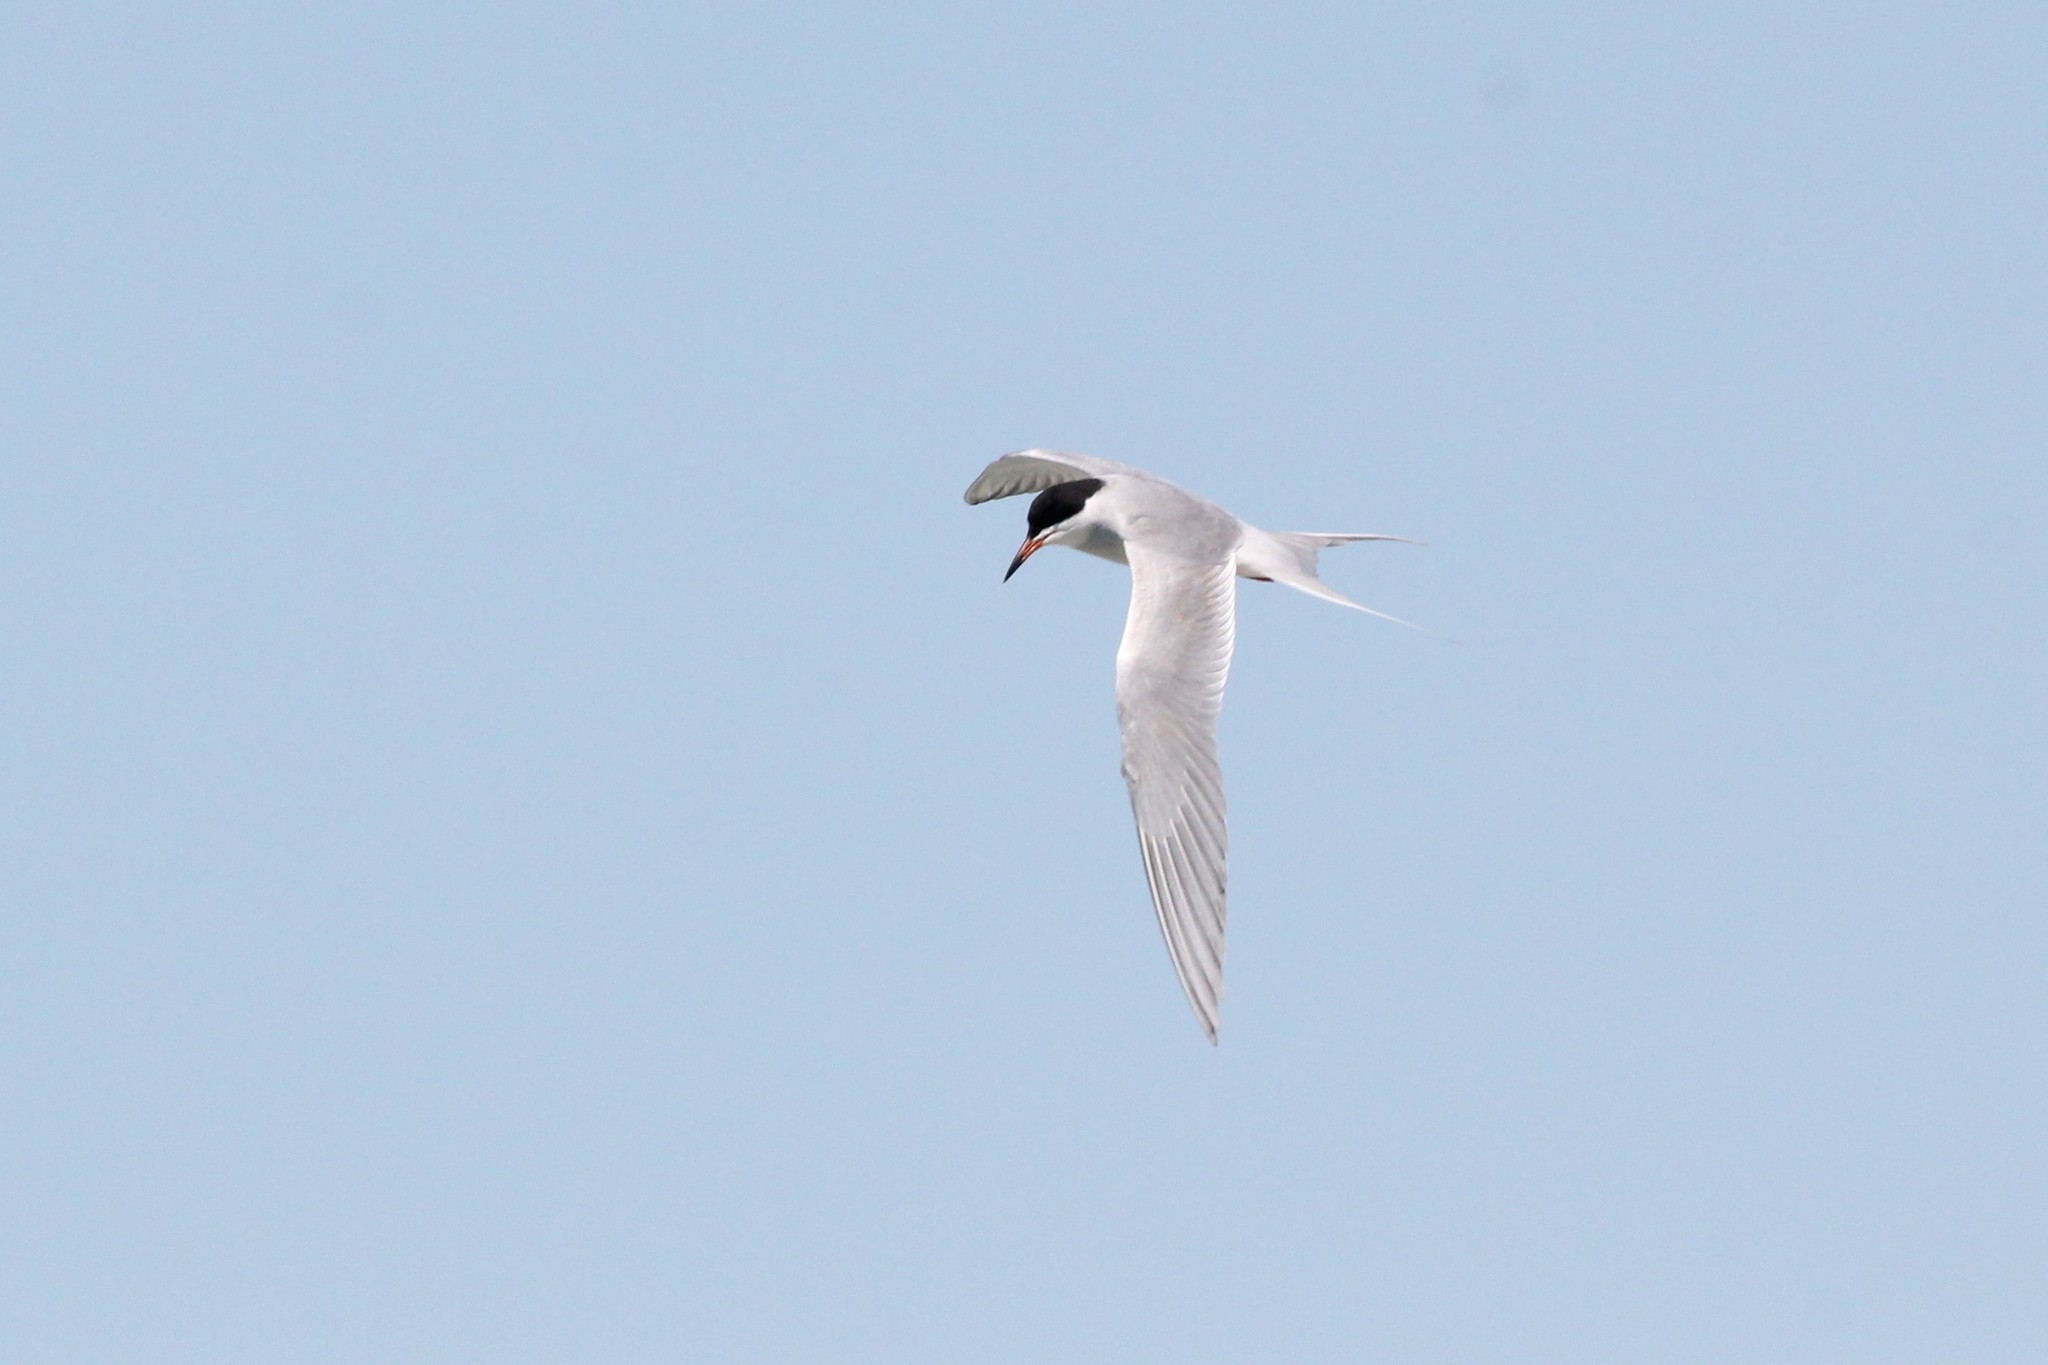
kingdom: Animalia
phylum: Chordata
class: Aves
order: Charadriiformes
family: Laridae
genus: Sterna
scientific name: Sterna forsteri
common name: Forster's tern
